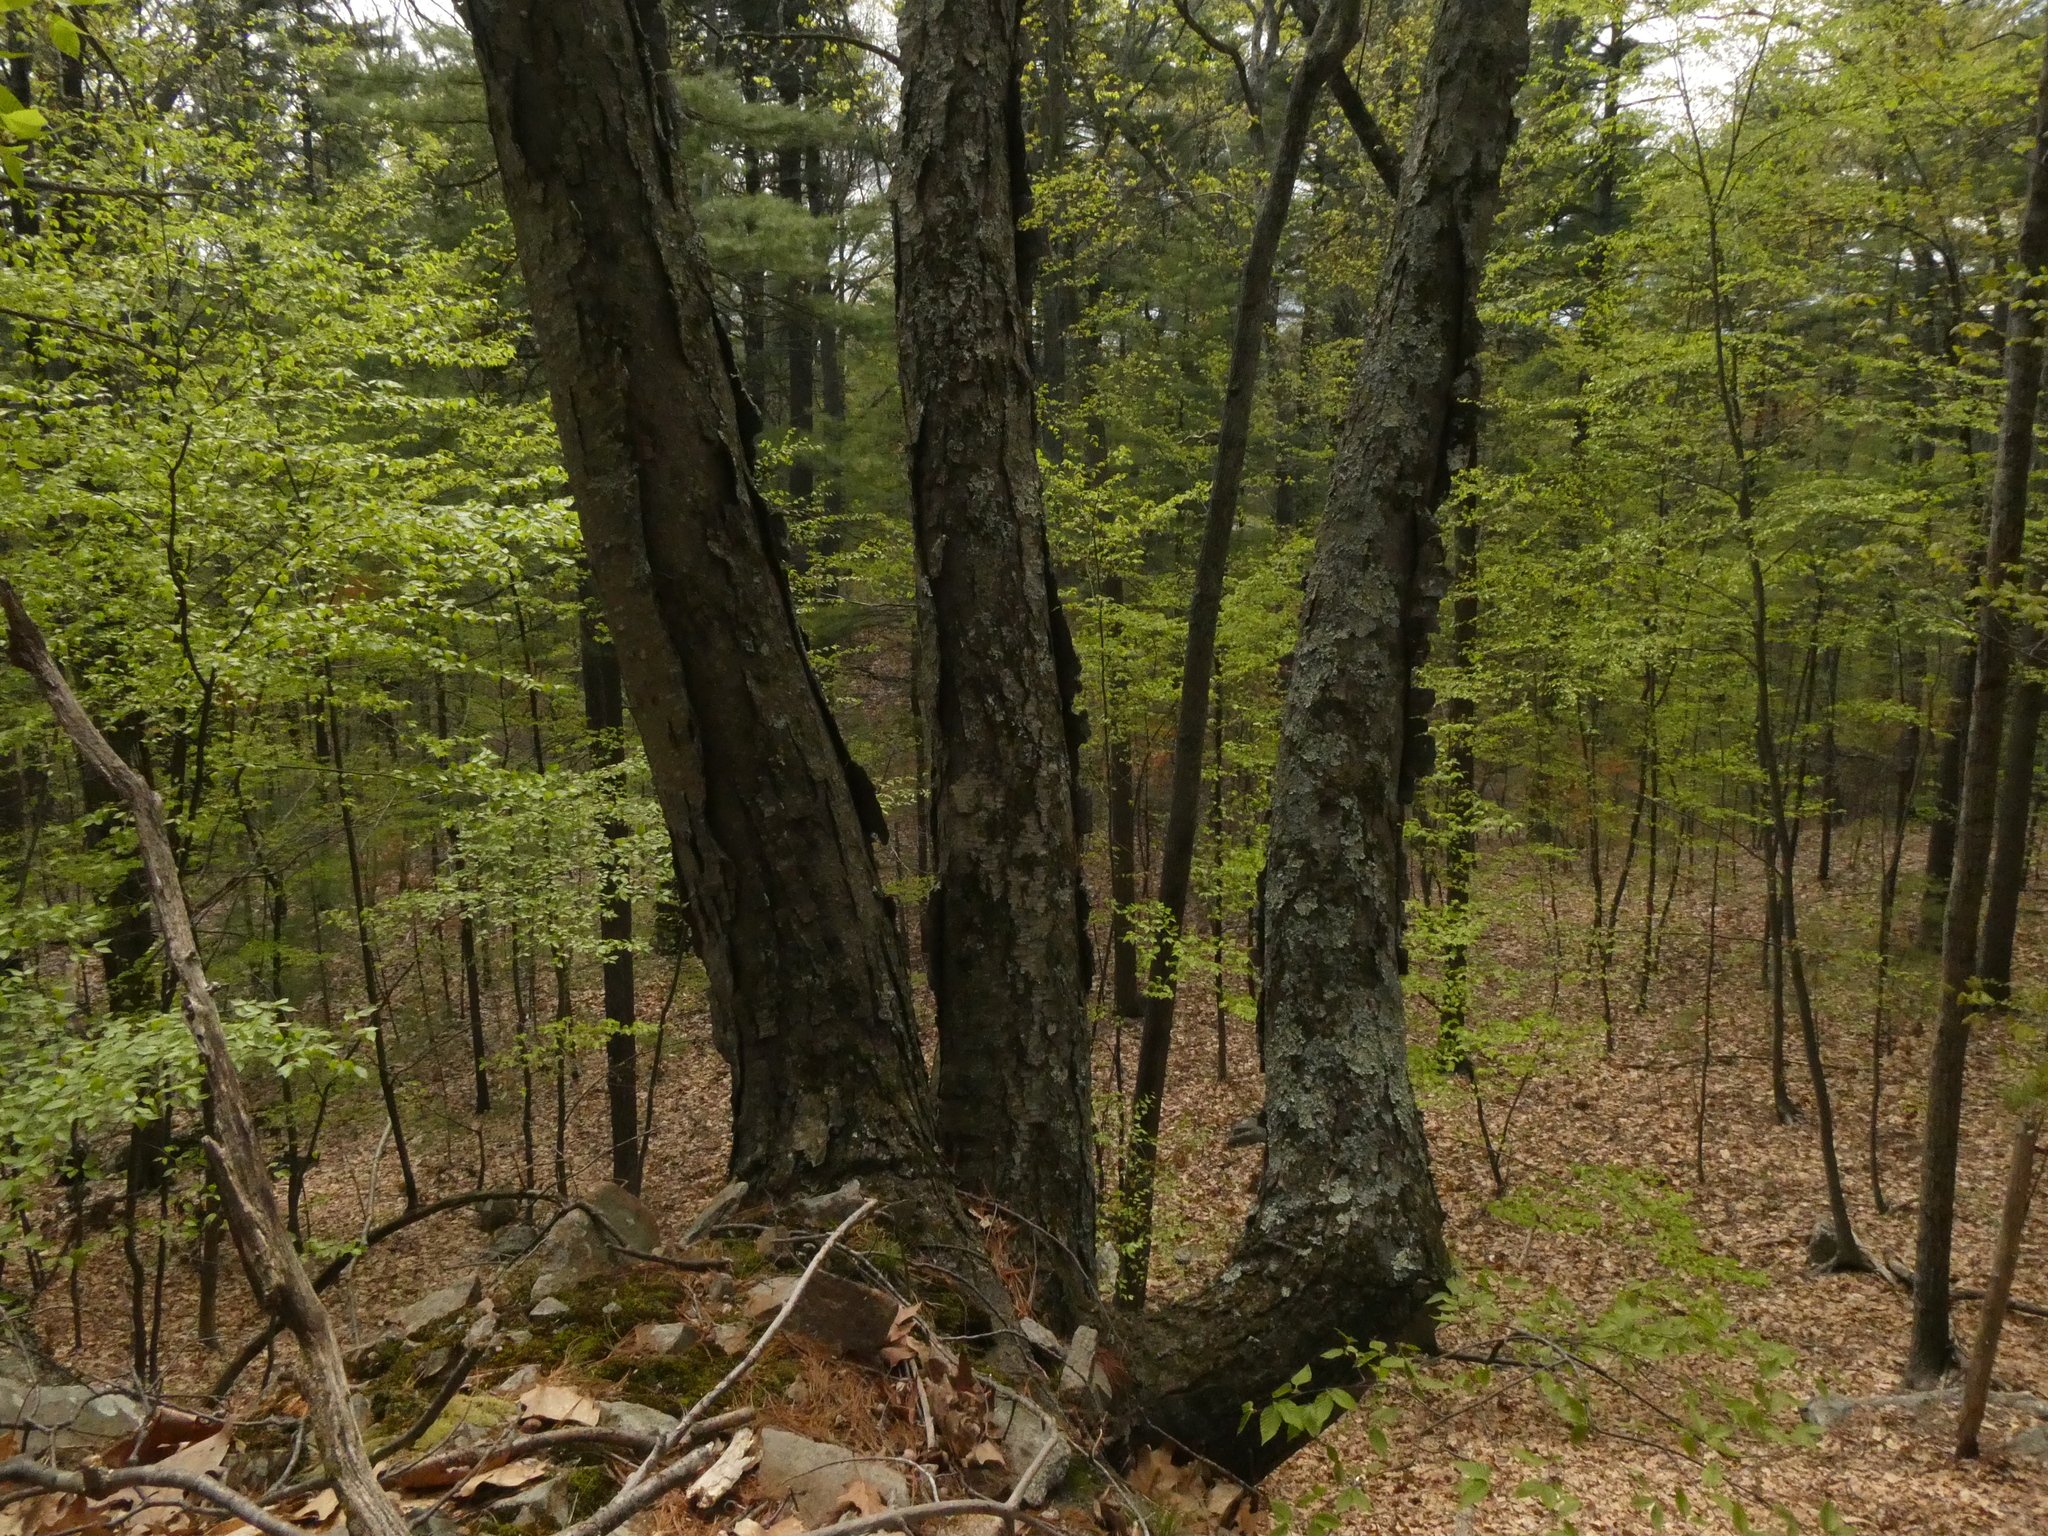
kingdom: Plantae
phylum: Tracheophyta
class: Magnoliopsida
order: Fagales
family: Betulaceae
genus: Betula
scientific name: Betula lenta
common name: Black birch
